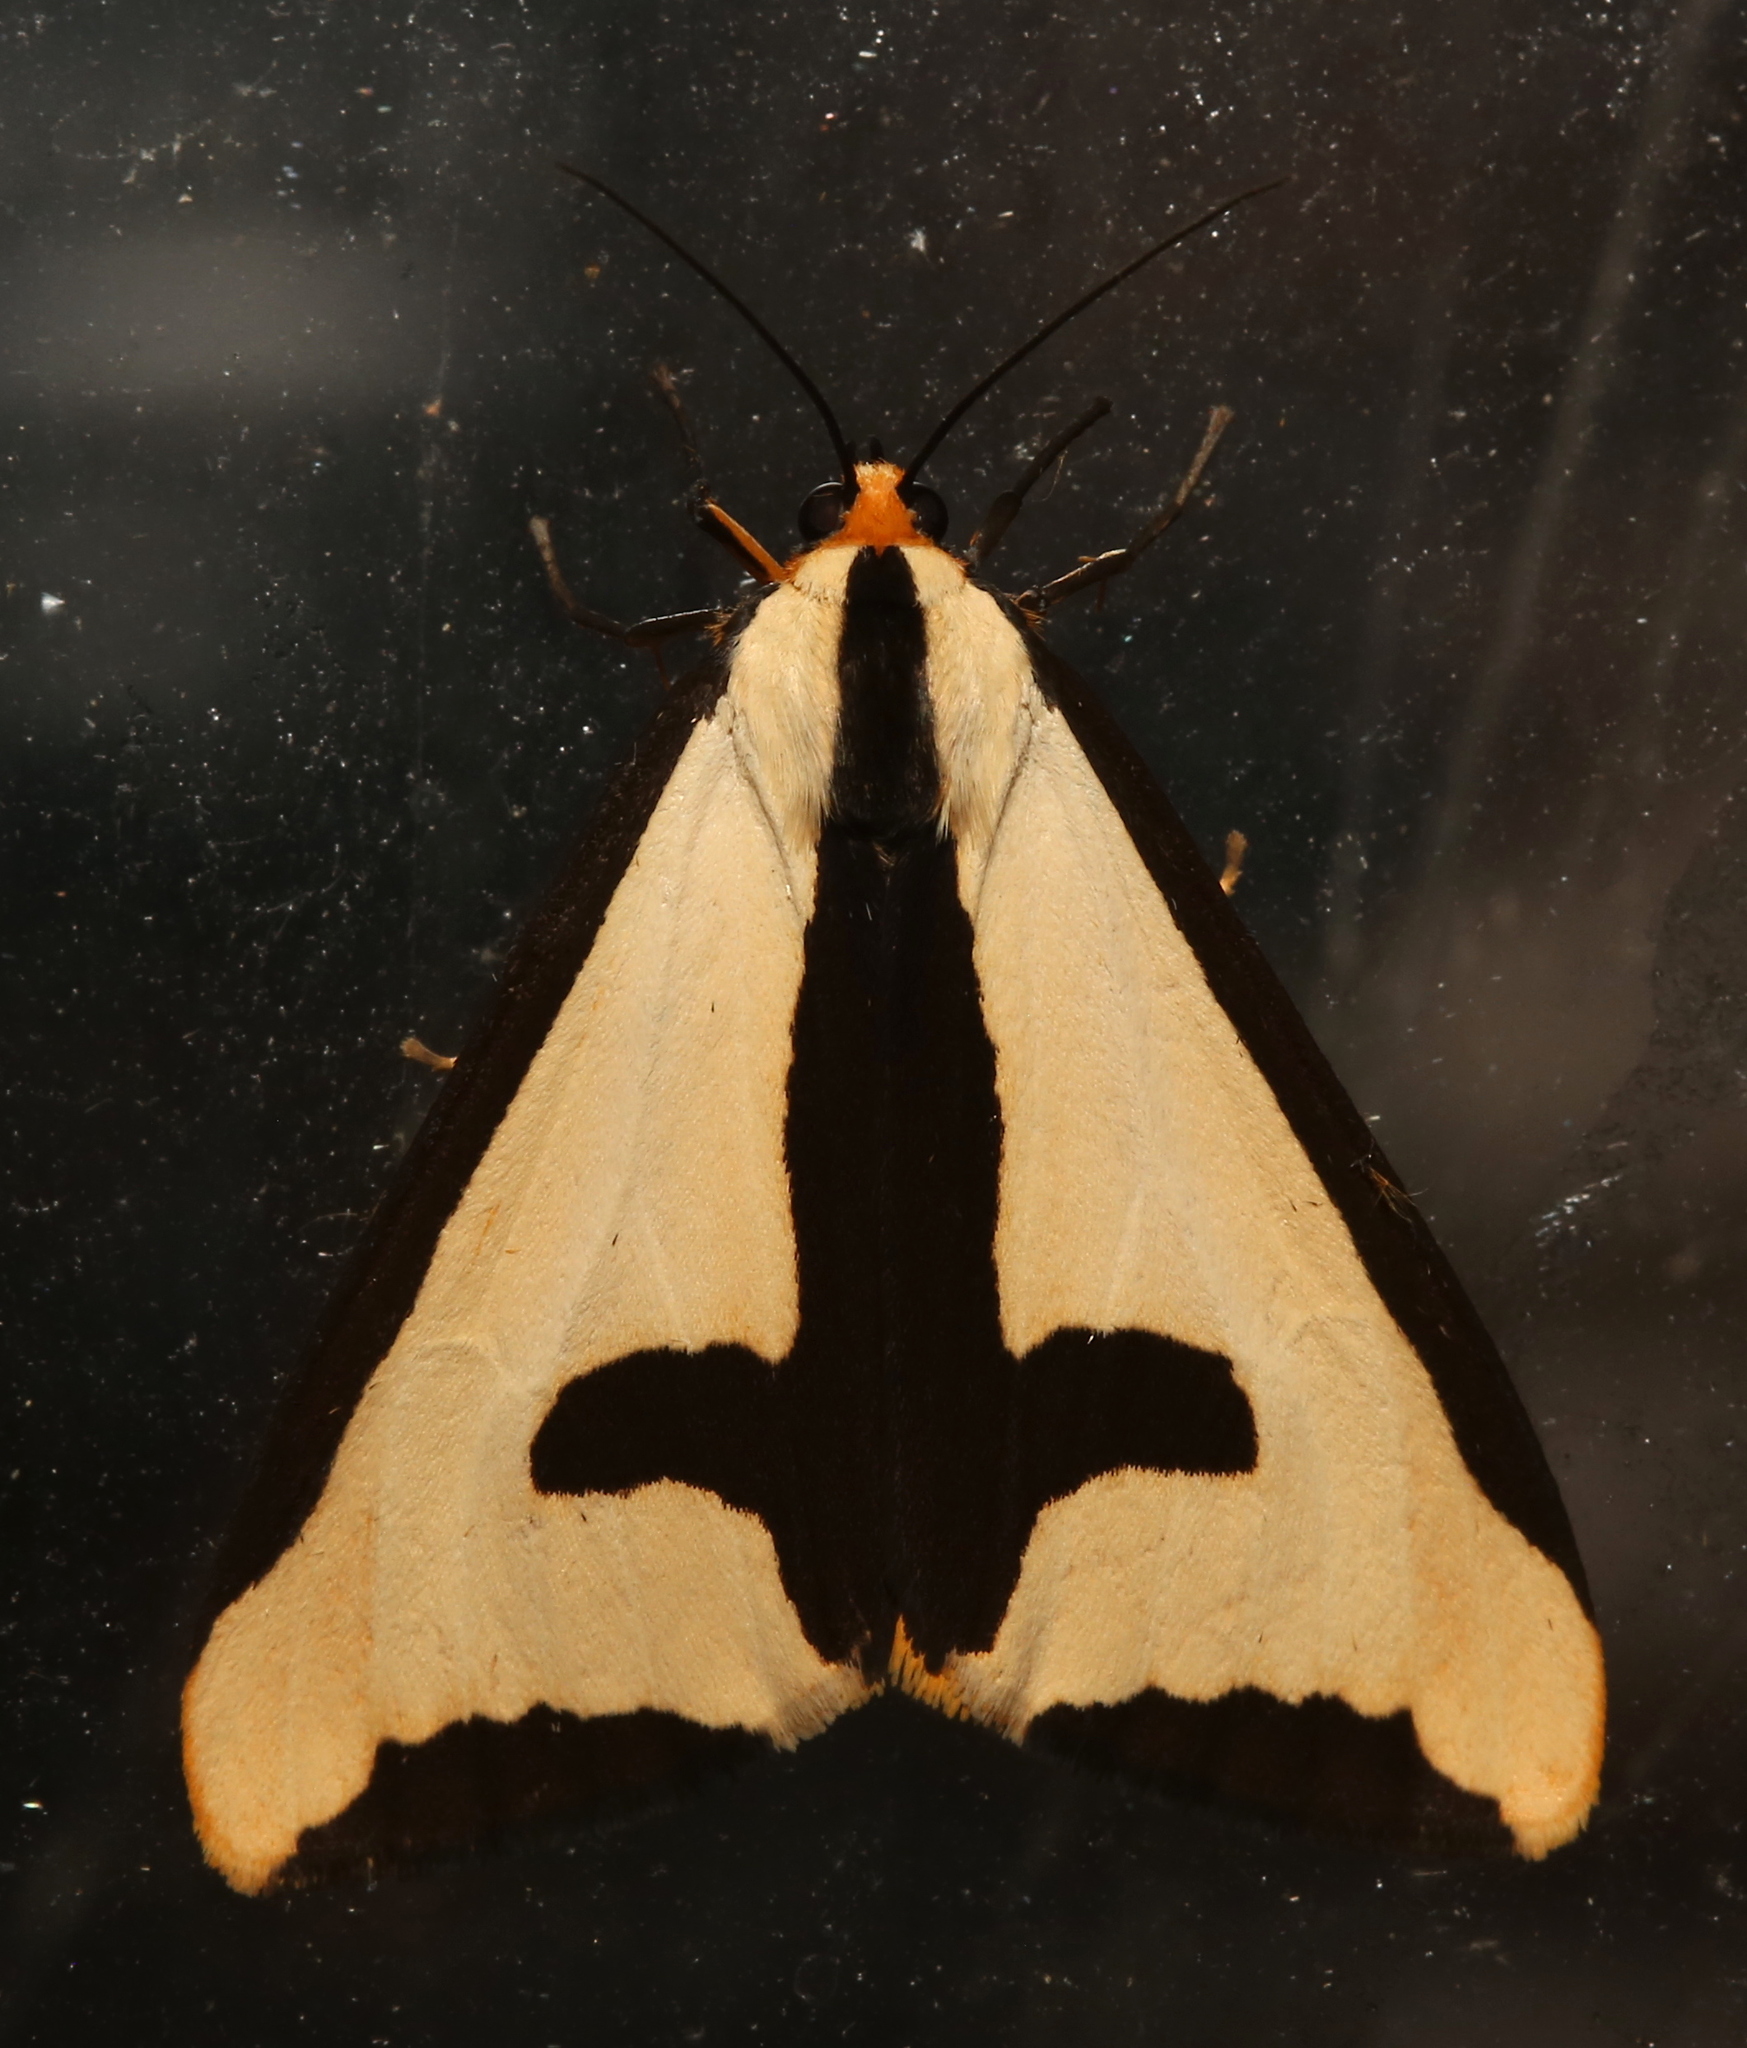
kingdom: Animalia
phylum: Arthropoda
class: Insecta
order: Lepidoptera
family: Erebidae
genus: Haploa
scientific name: Haploa clymene
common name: Clymene moth
